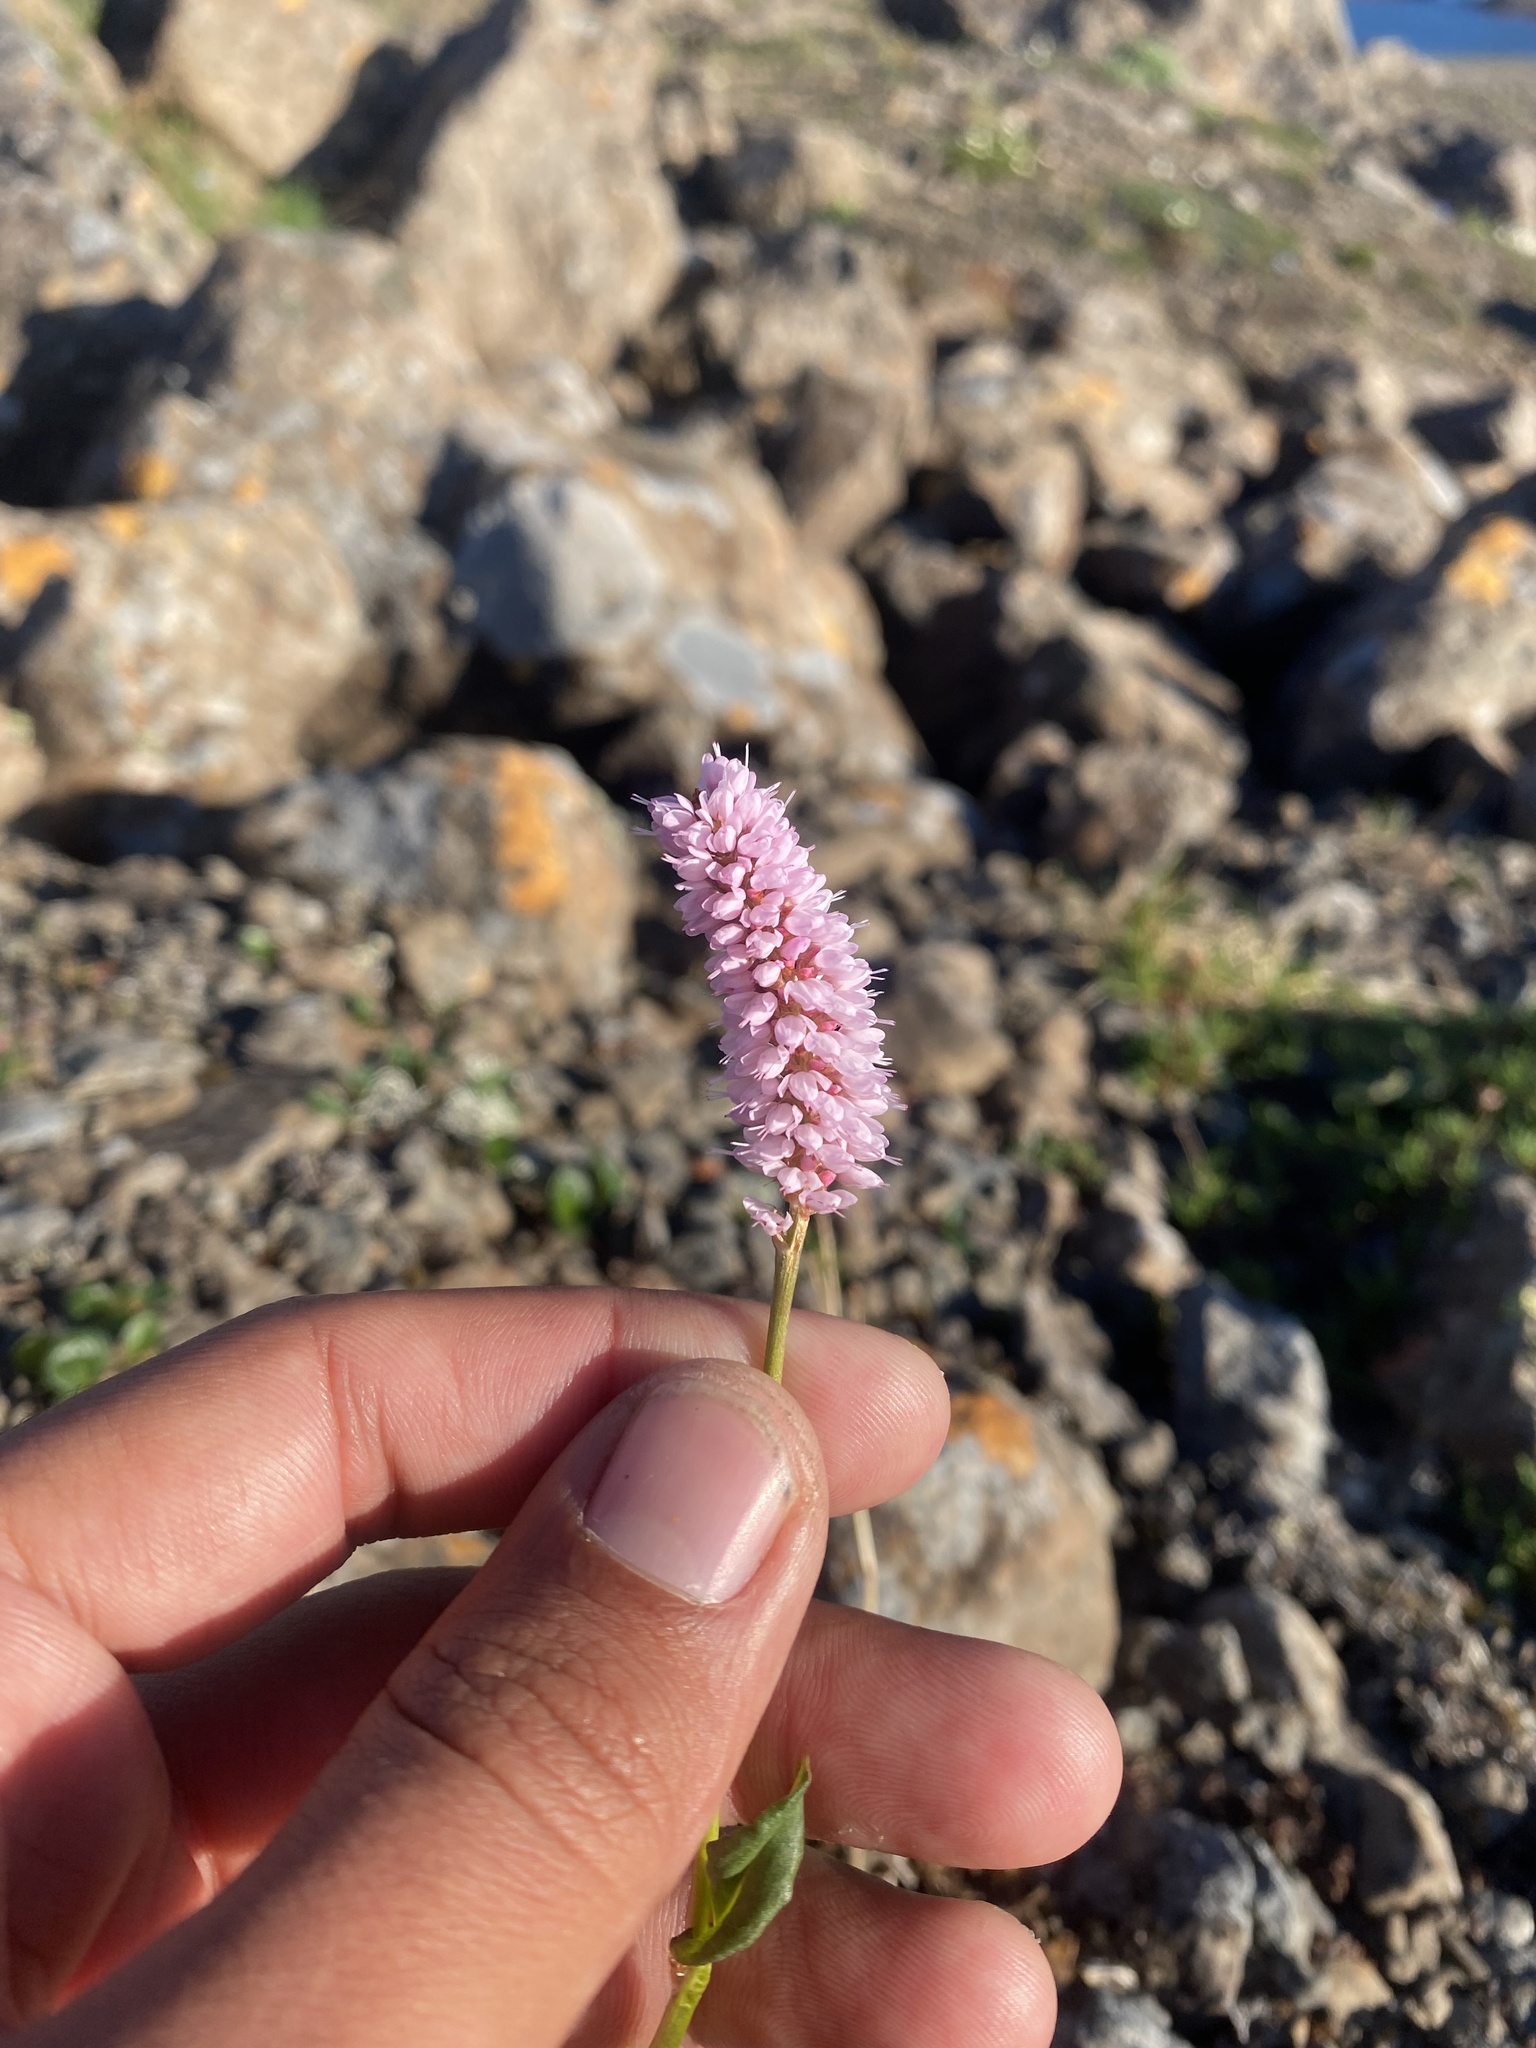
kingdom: Plantae
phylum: Tracheophyta
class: Magnoliopsida
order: Caryophyllales
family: Polygonaceae
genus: Bistorta
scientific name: Bistorta officinalis
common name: Common bistort
